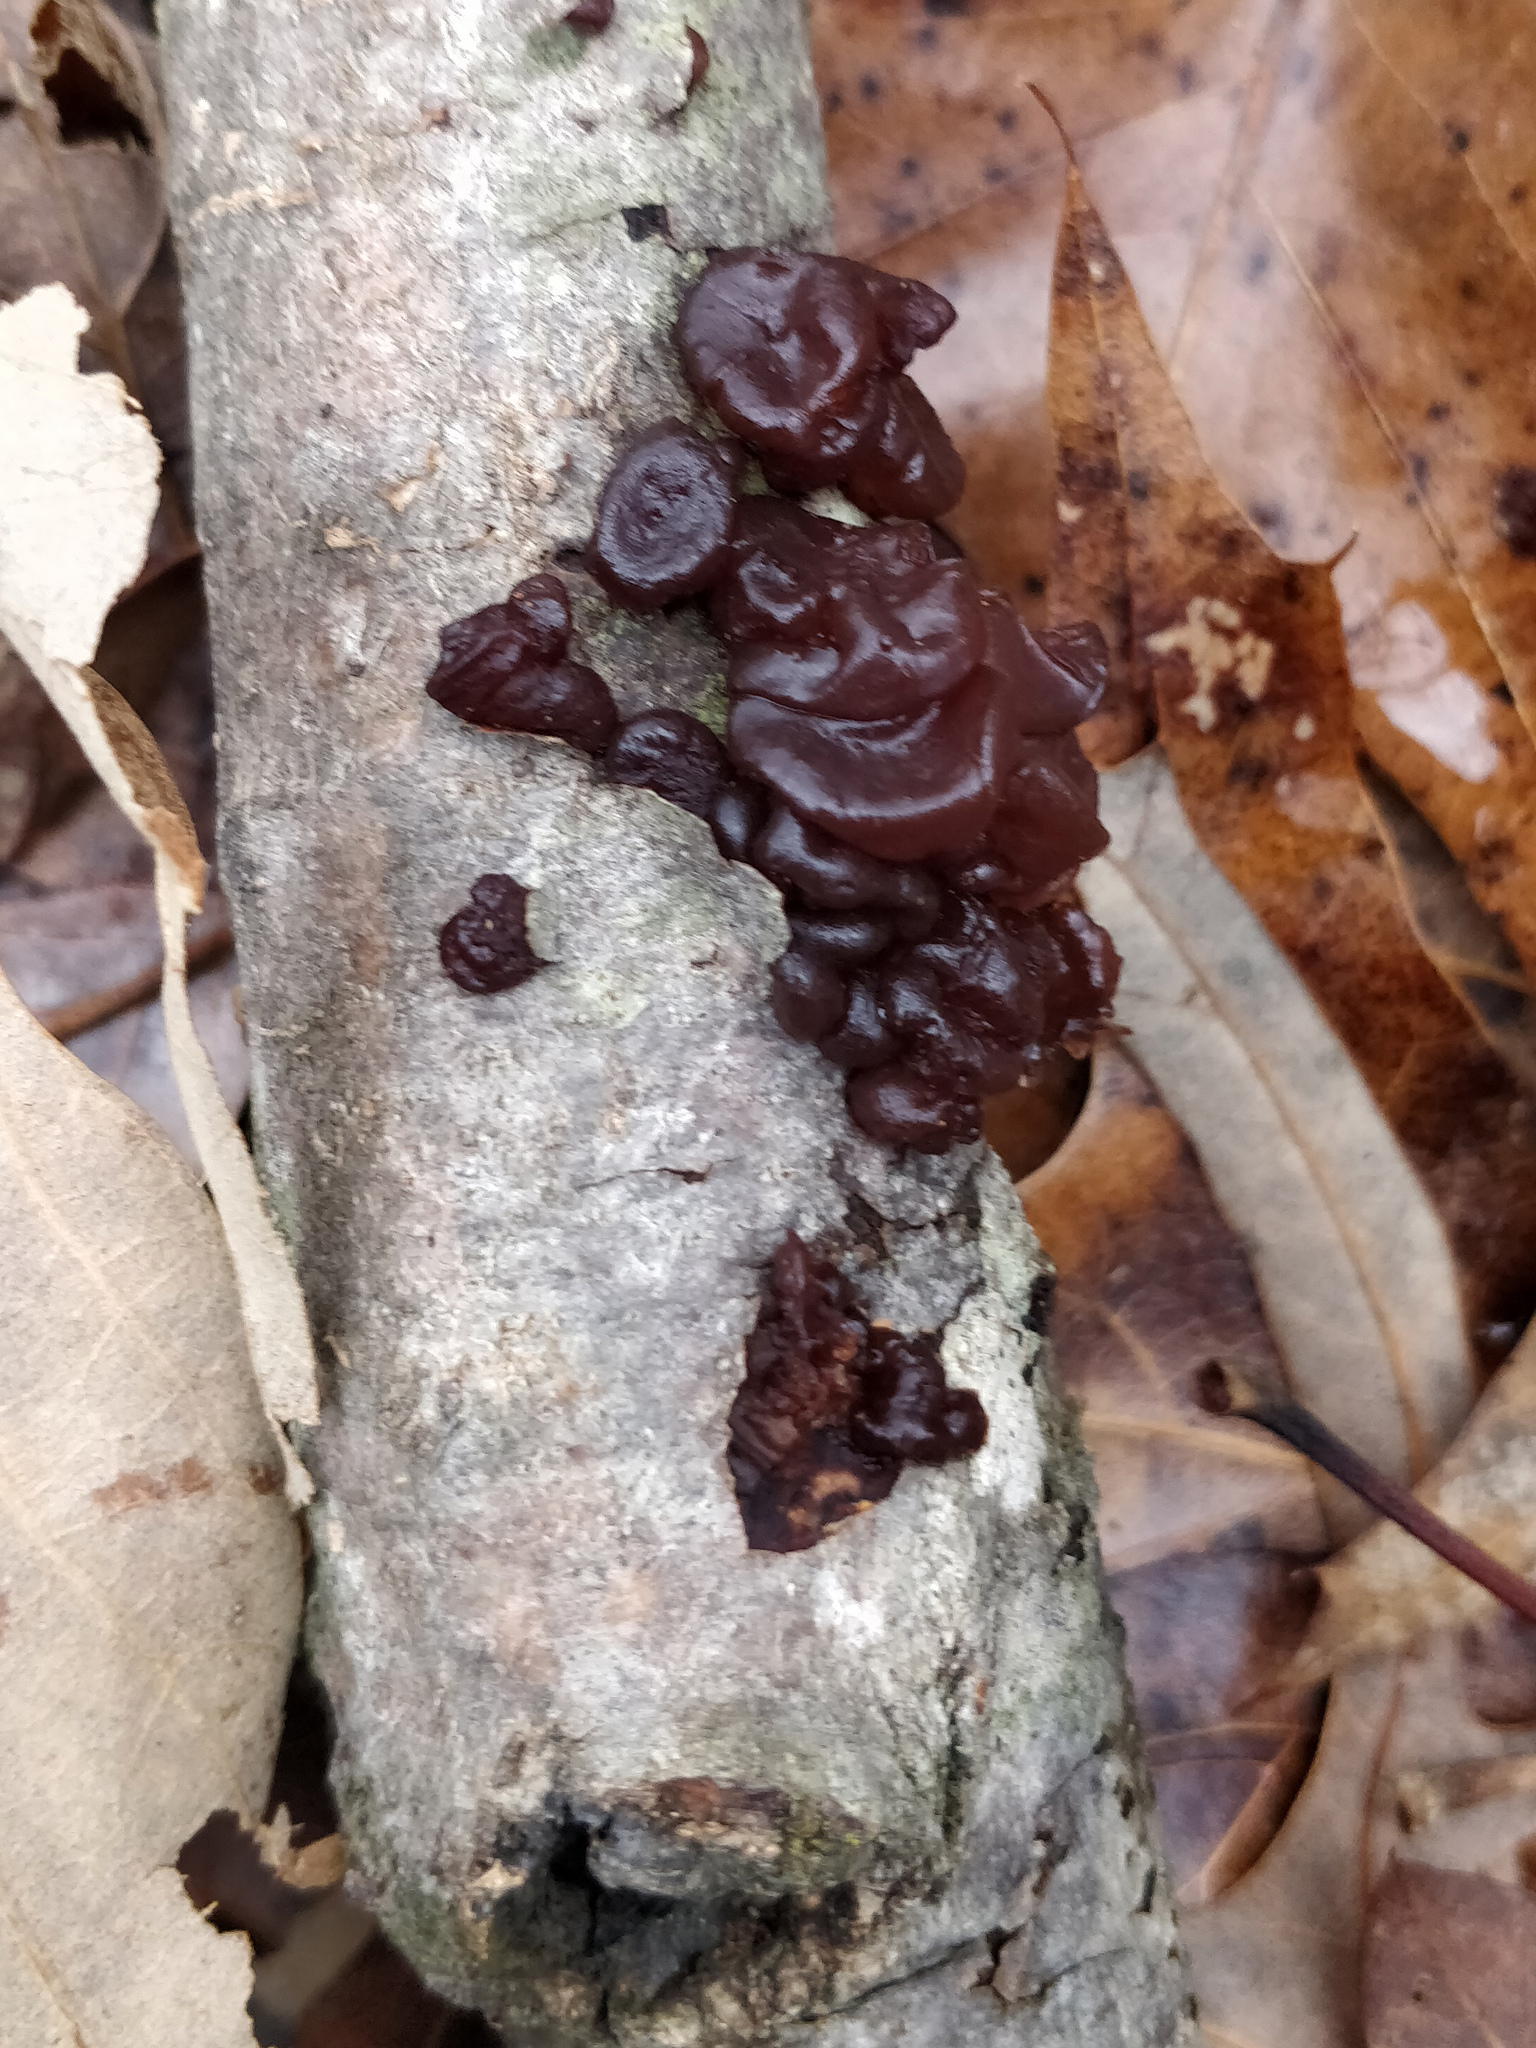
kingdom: Fungi
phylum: Basidiomycota
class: Agaricomycetes
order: Auriculariales
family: Auriculariaceae
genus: Exidia
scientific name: Exidia
